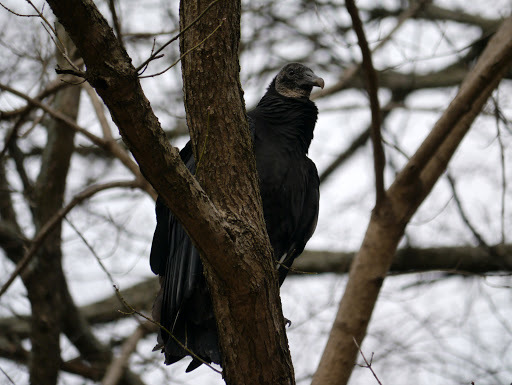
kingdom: Animalia
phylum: Chordata
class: Aves
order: Accipitriformes
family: Cathartidae
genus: Coragyps
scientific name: Coragyps atratus
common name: Black vulture
